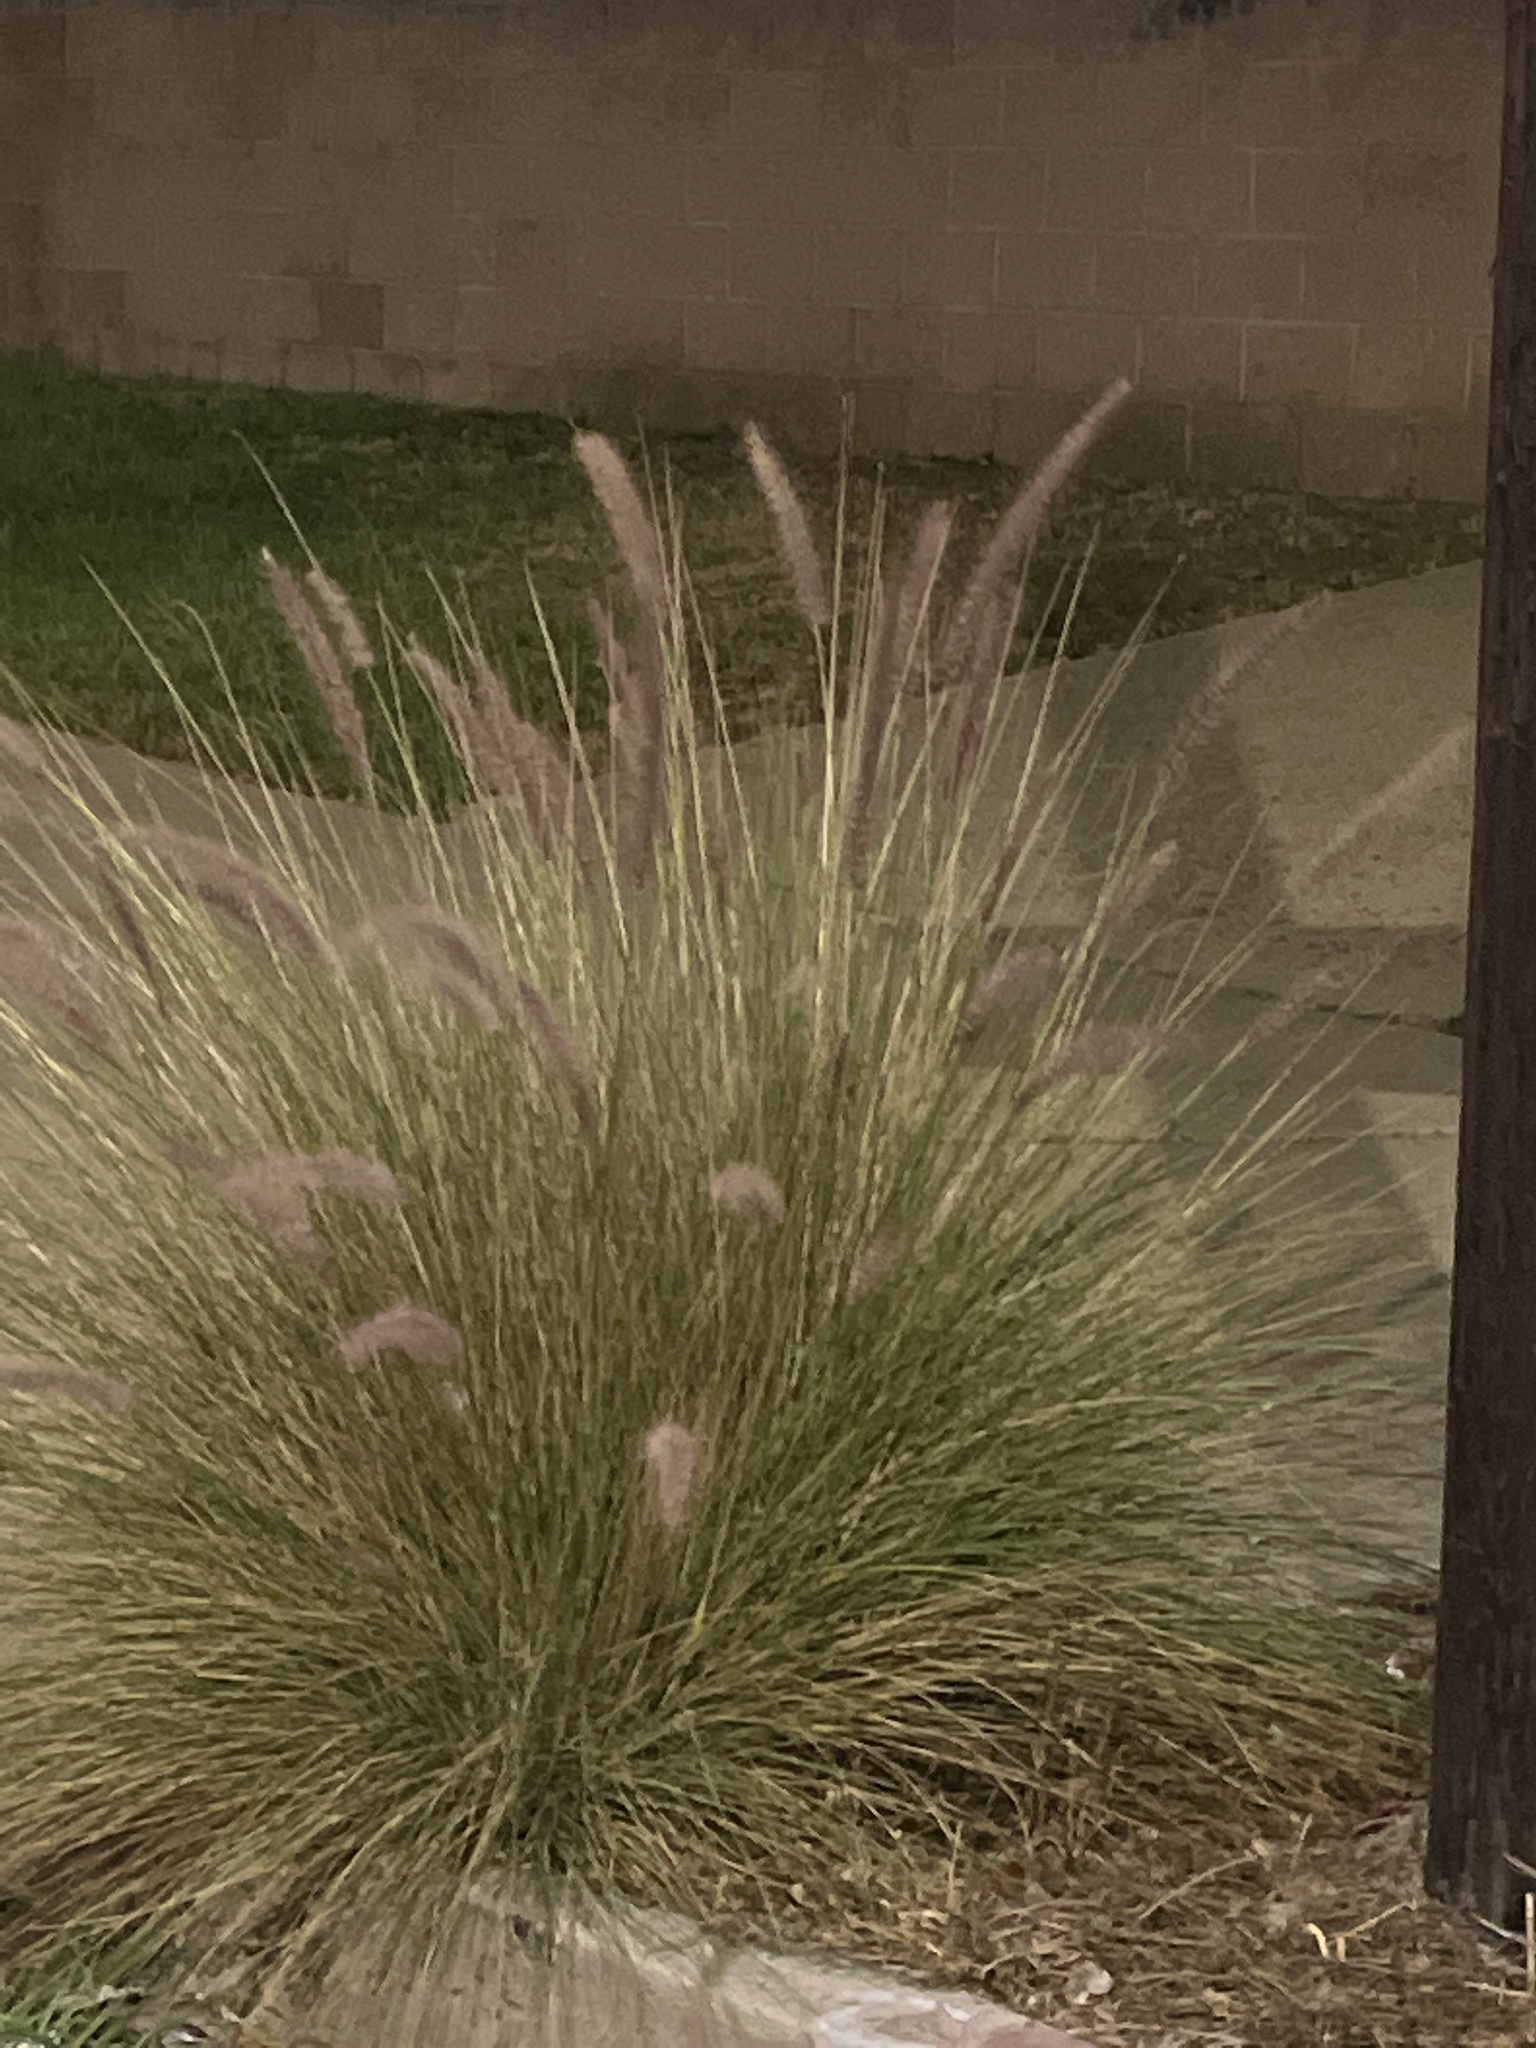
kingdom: Plantae
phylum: Tracheophyta
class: Liliopsida
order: Poales
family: Poaceae
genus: Cenchrus
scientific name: Cenchrus setaceus
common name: Crimson fountaingrass
